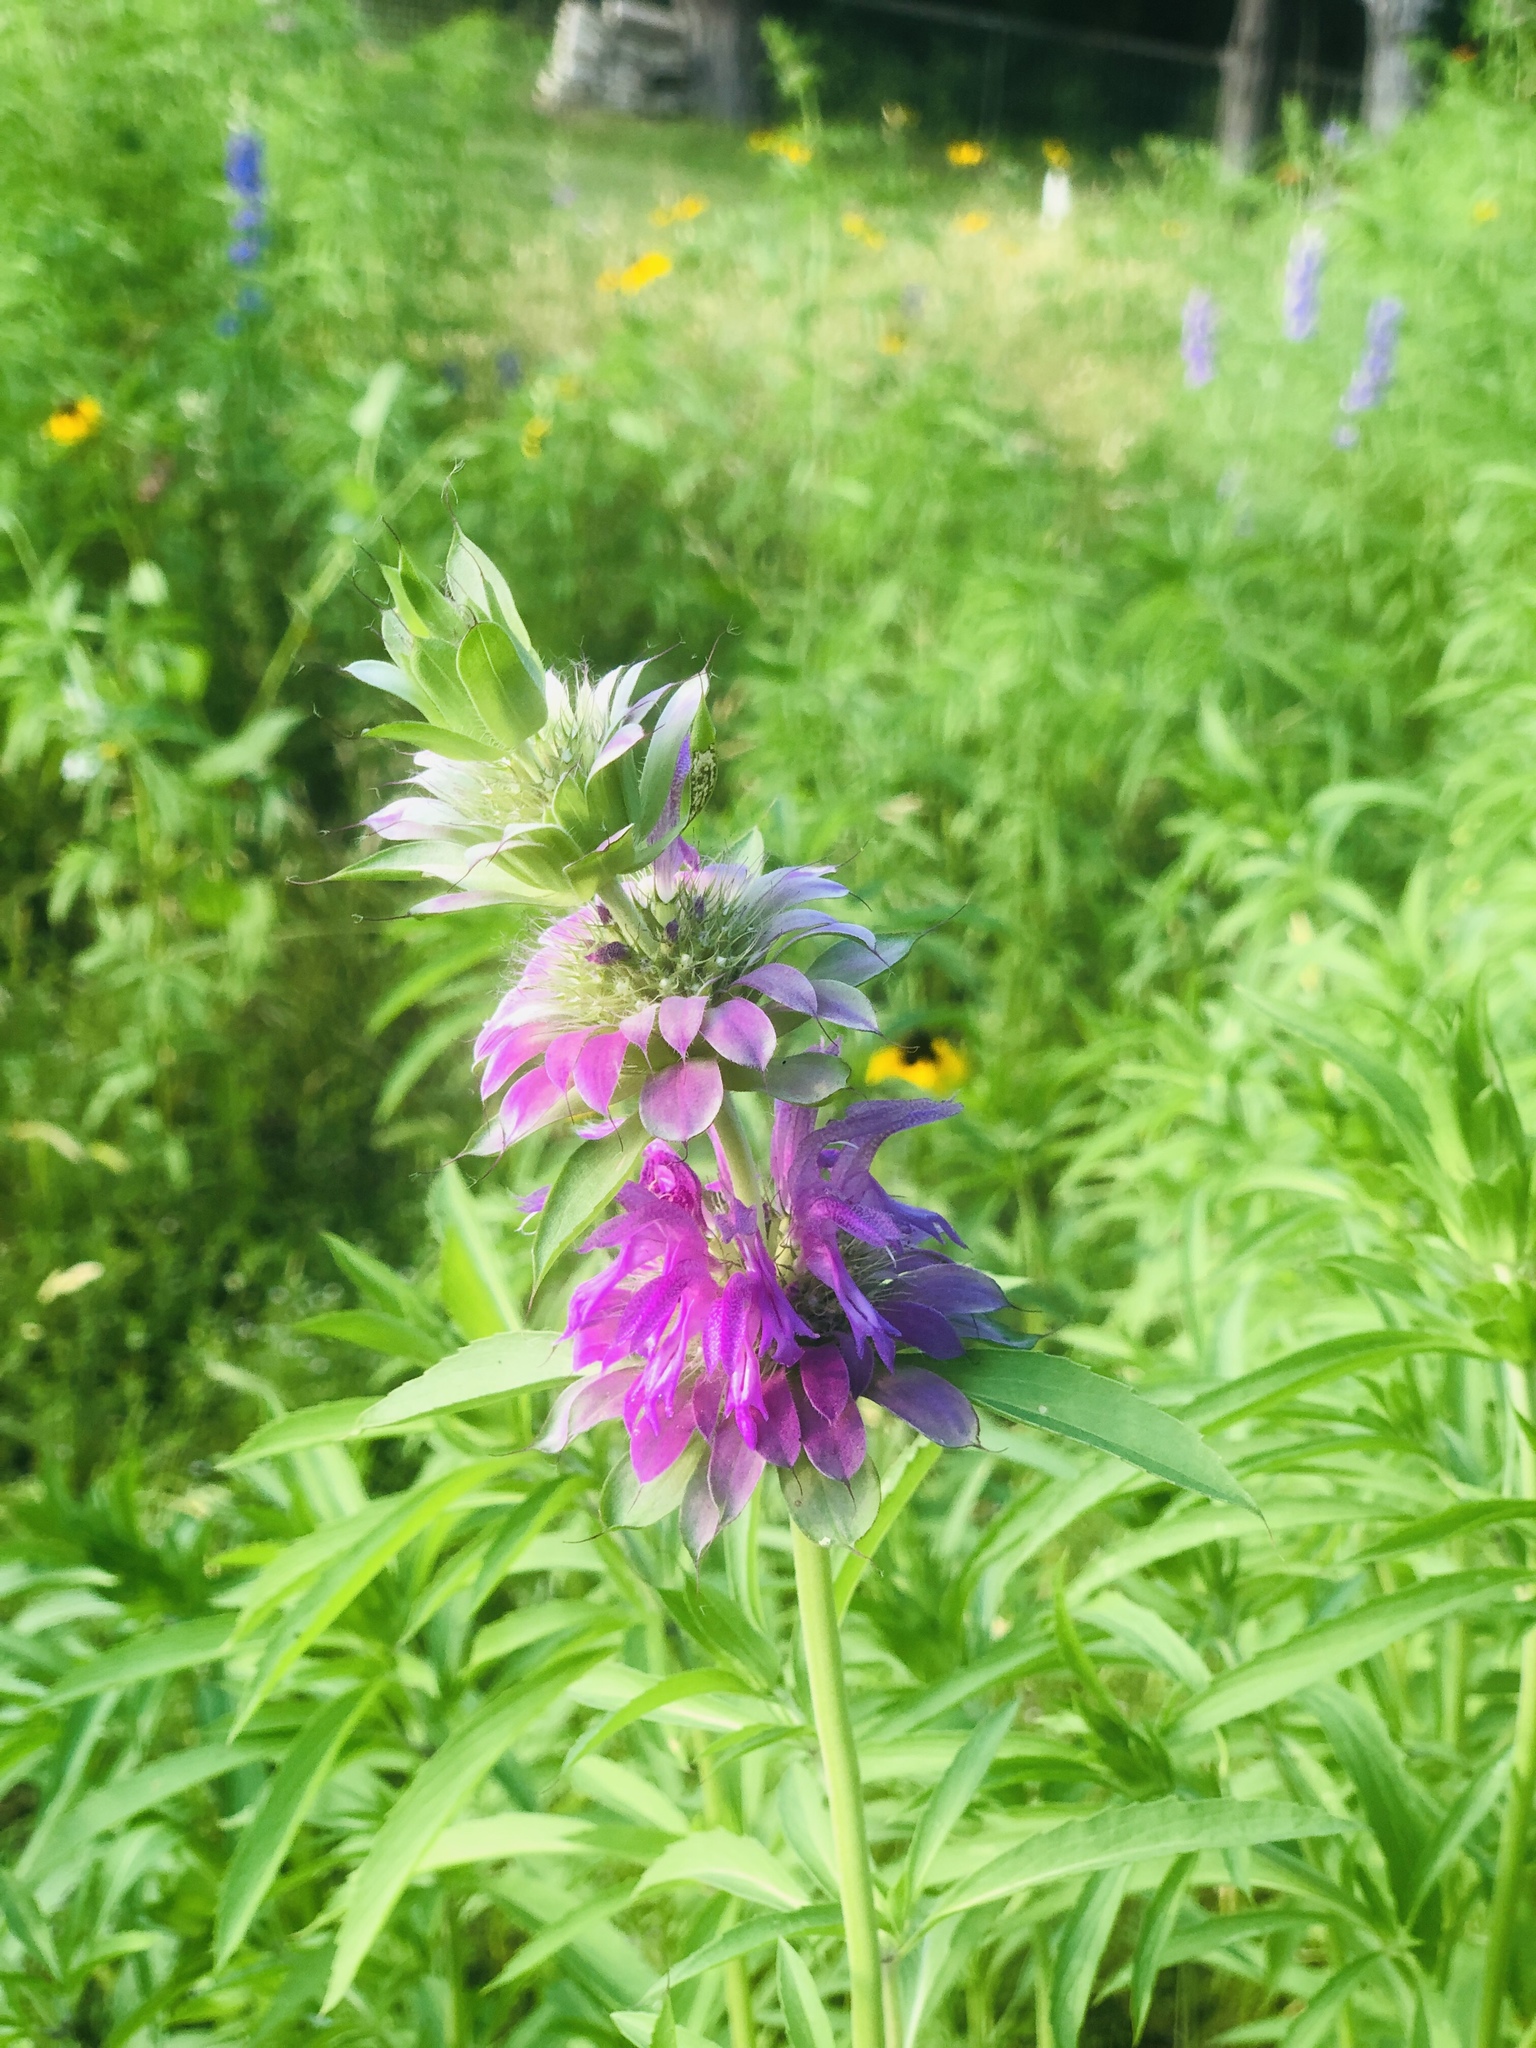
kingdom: Plantae
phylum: Tracheophyta
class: Magnoliopsida
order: Lamiales
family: Lamiaceae
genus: Monarda
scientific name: Monarda citriodora
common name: Lemon beebalm
